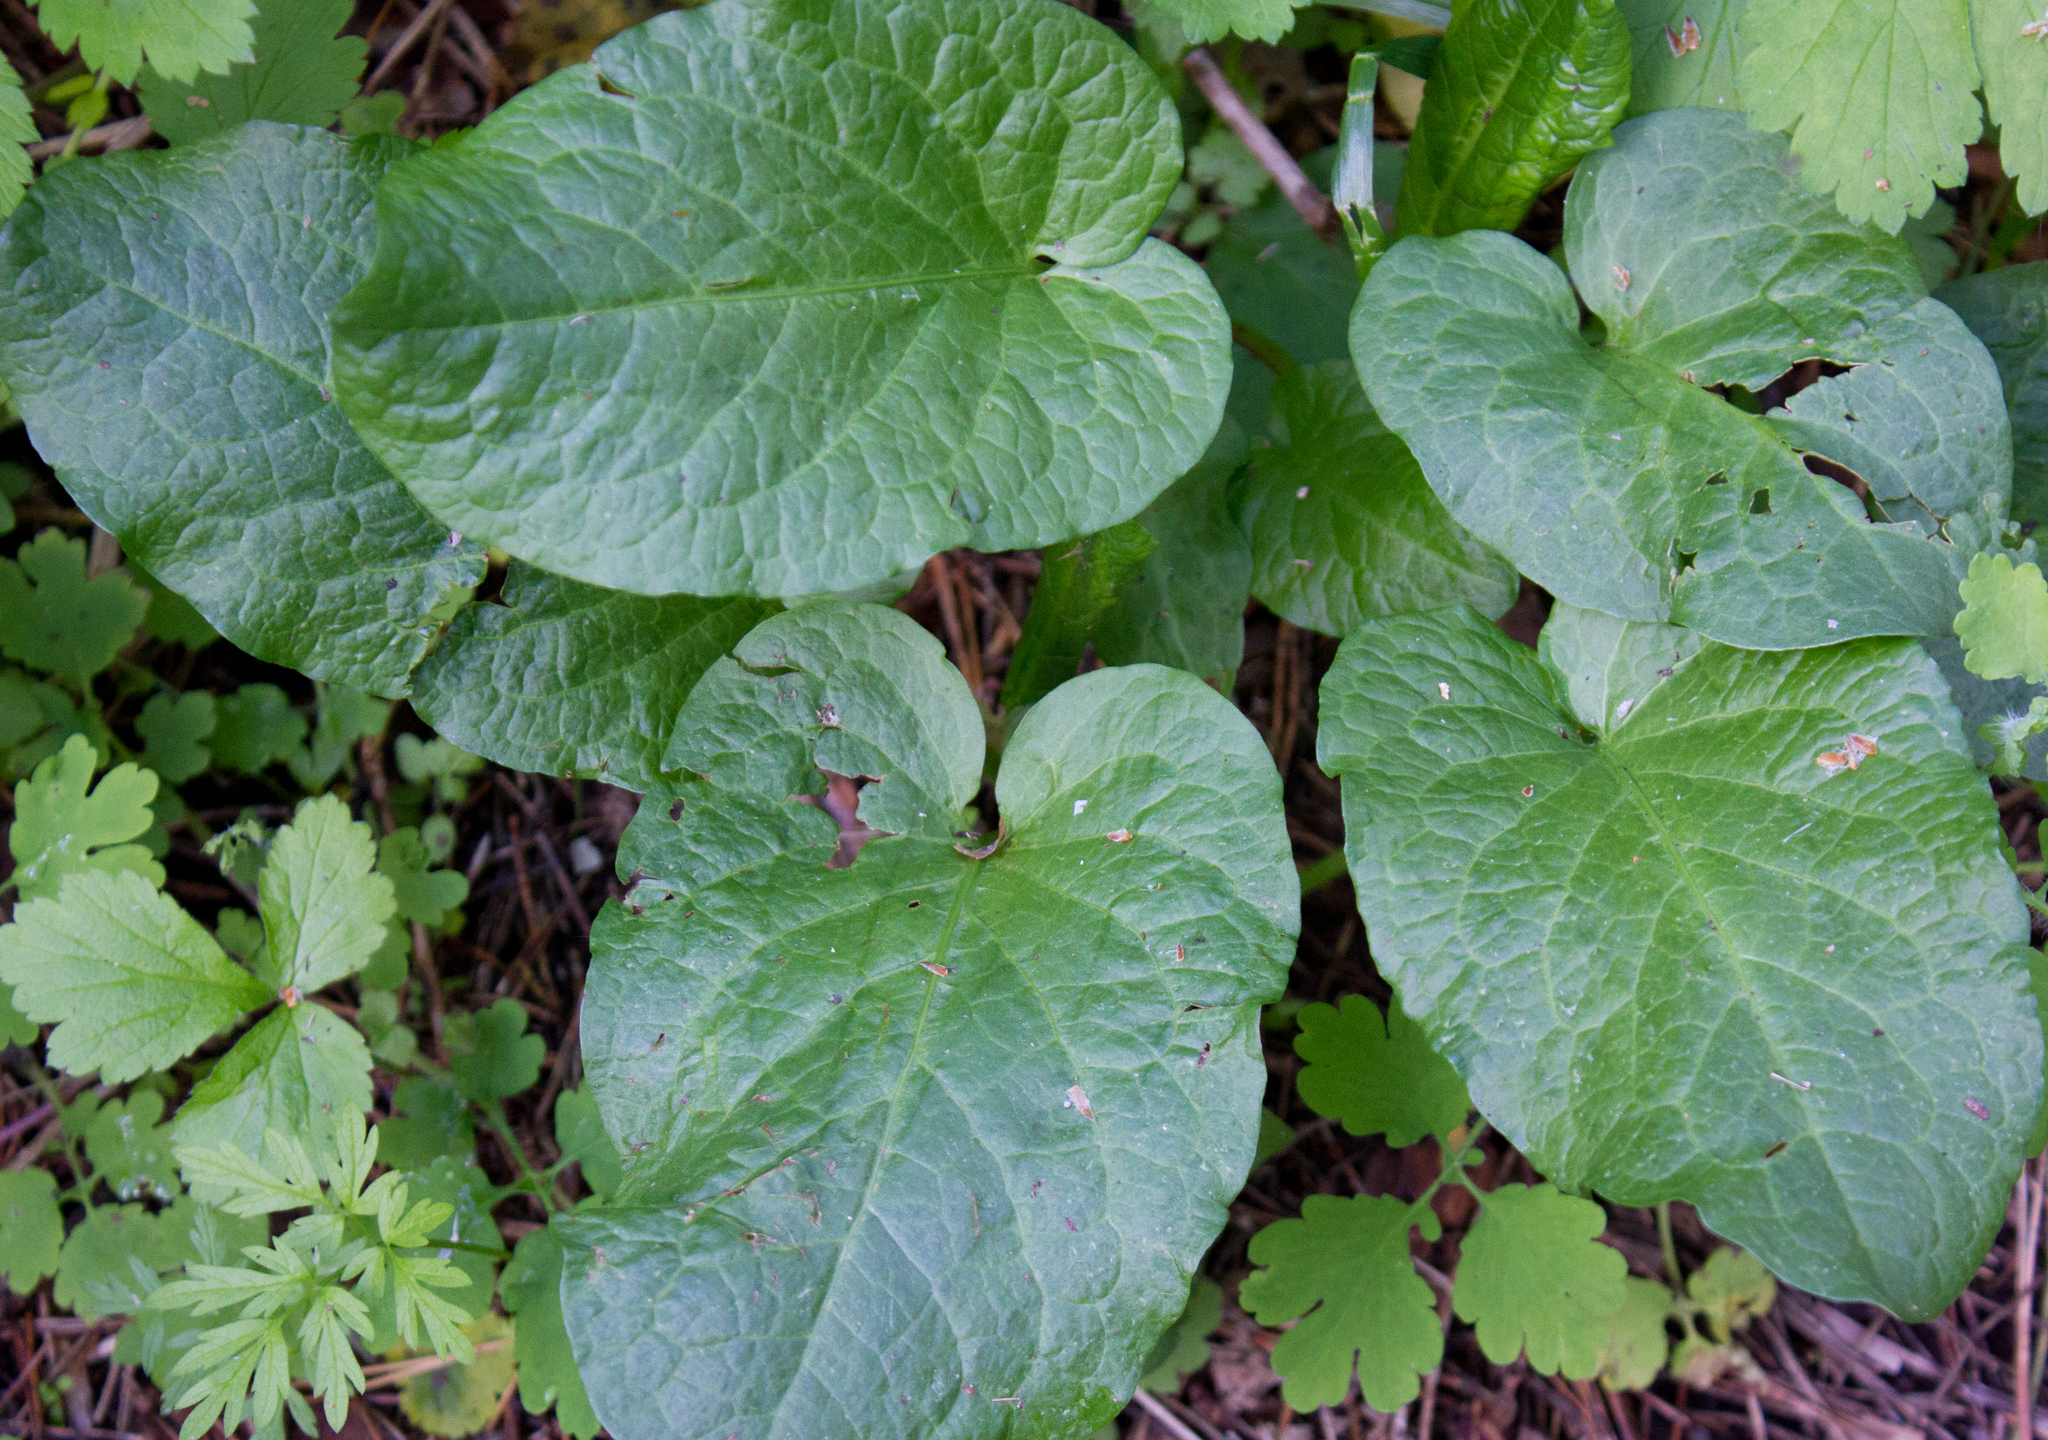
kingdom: Plantae
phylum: Tracheophyta
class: Magnoliopsida
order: Caryophyllales
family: Polygonaceae
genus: Rumex
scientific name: Rumex obtusifolius
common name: Bitter dock
